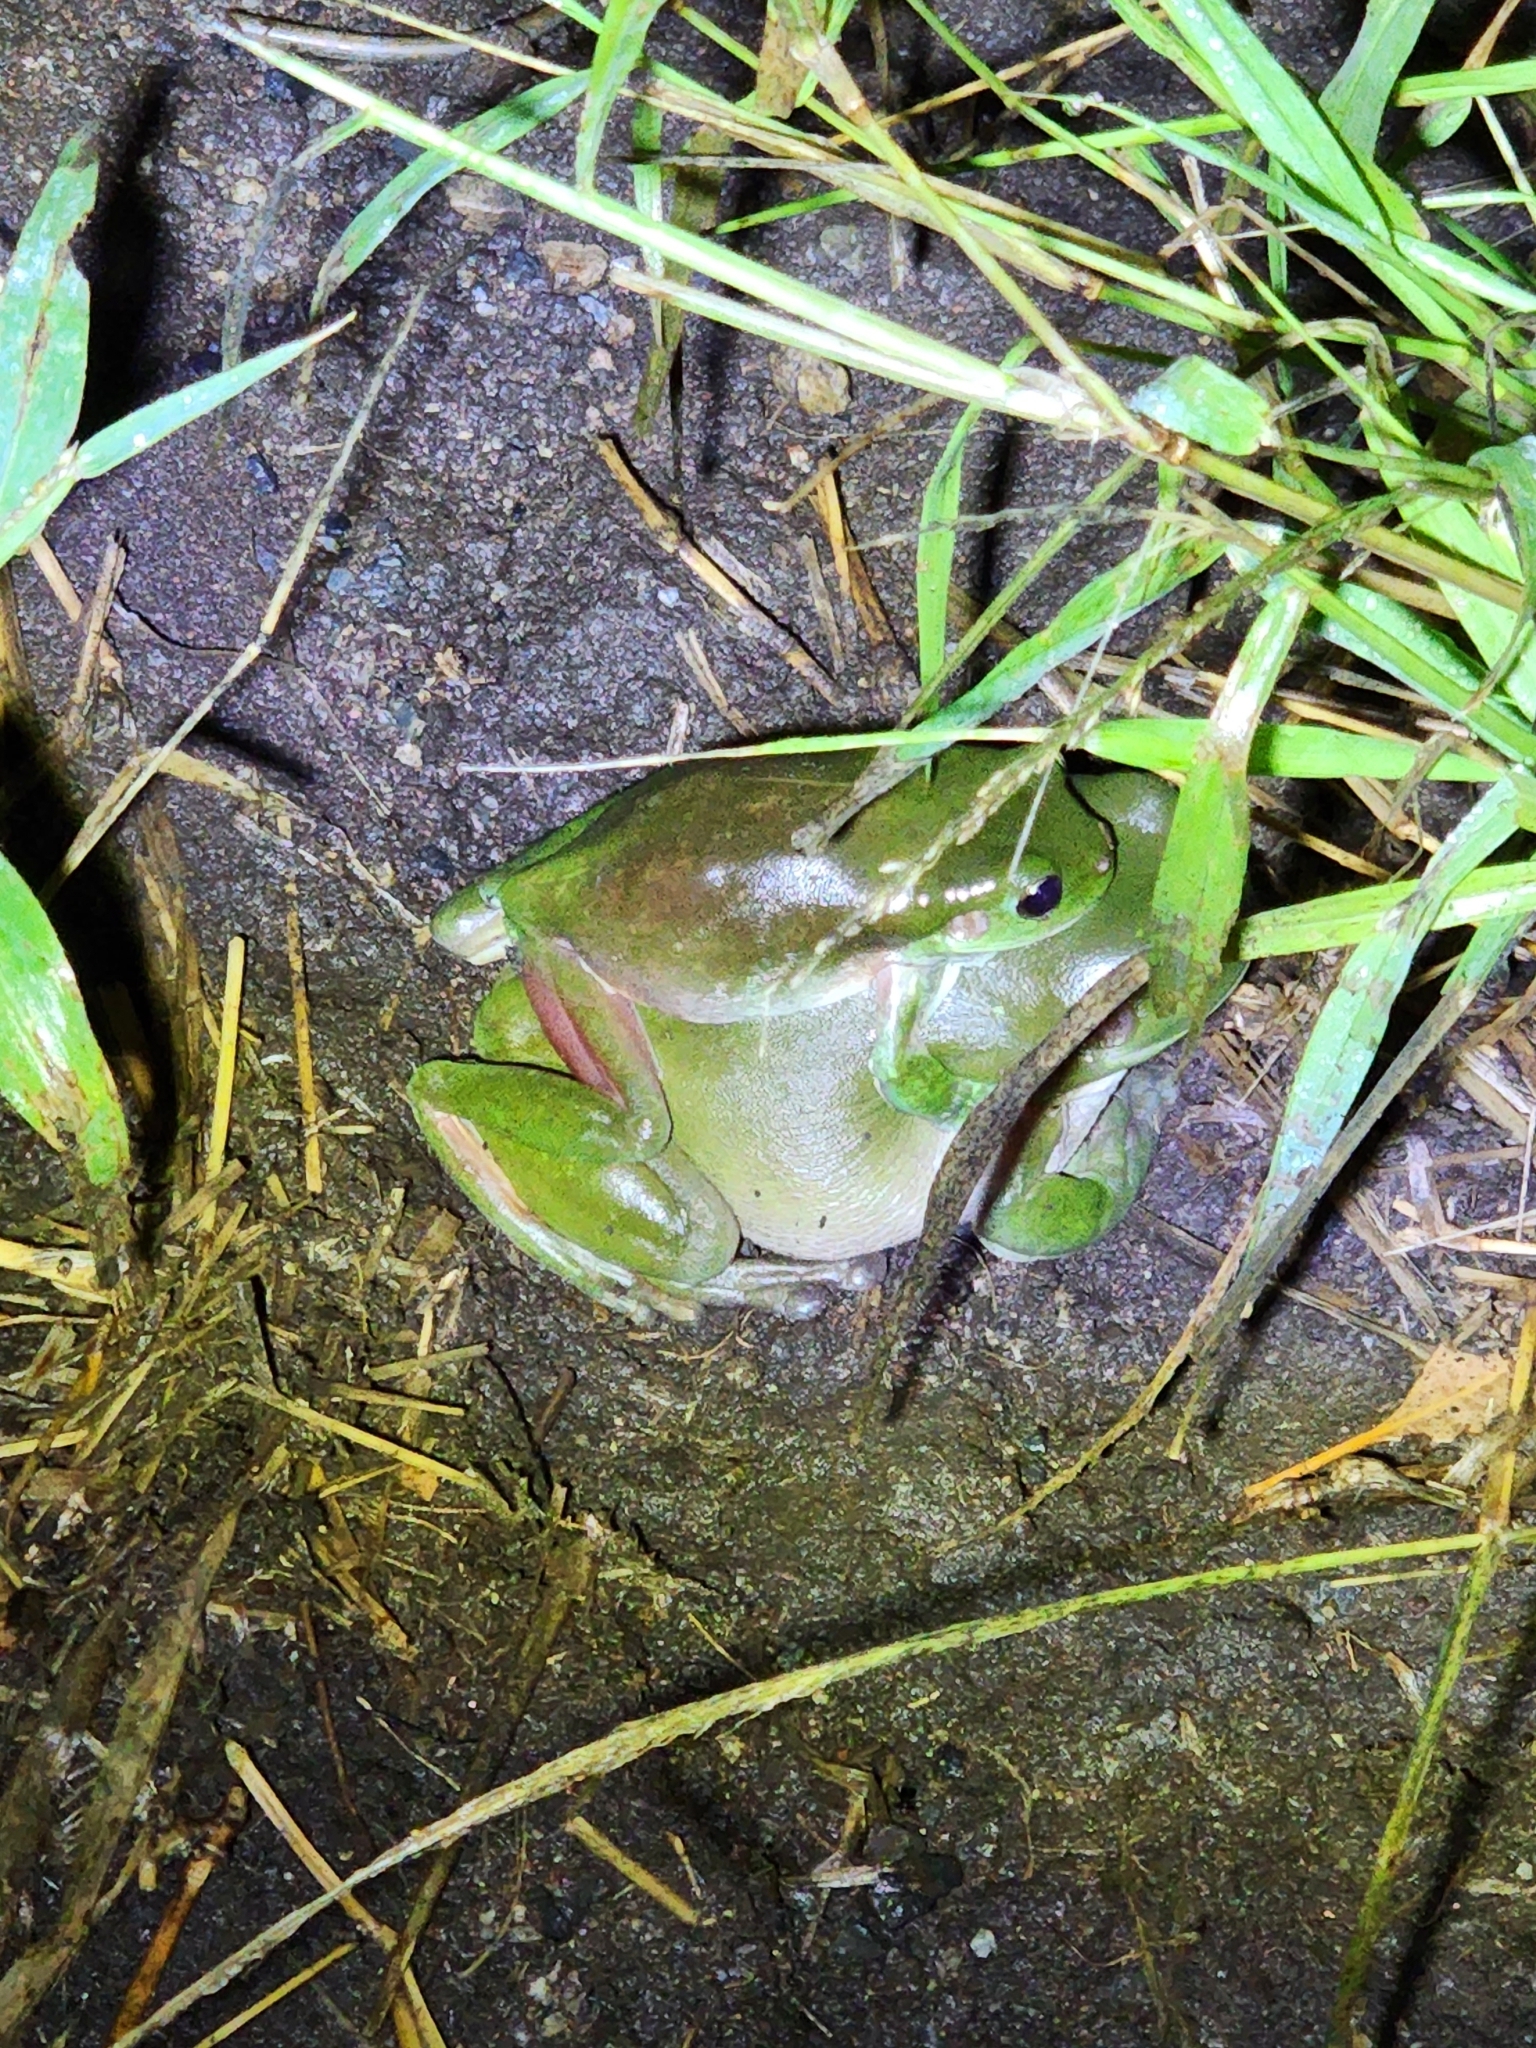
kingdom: Animalia
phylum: Chordata
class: Amphibia
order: Anura
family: Pelodryadidae
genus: Ranoidea
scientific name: Ranoidea caerulea
